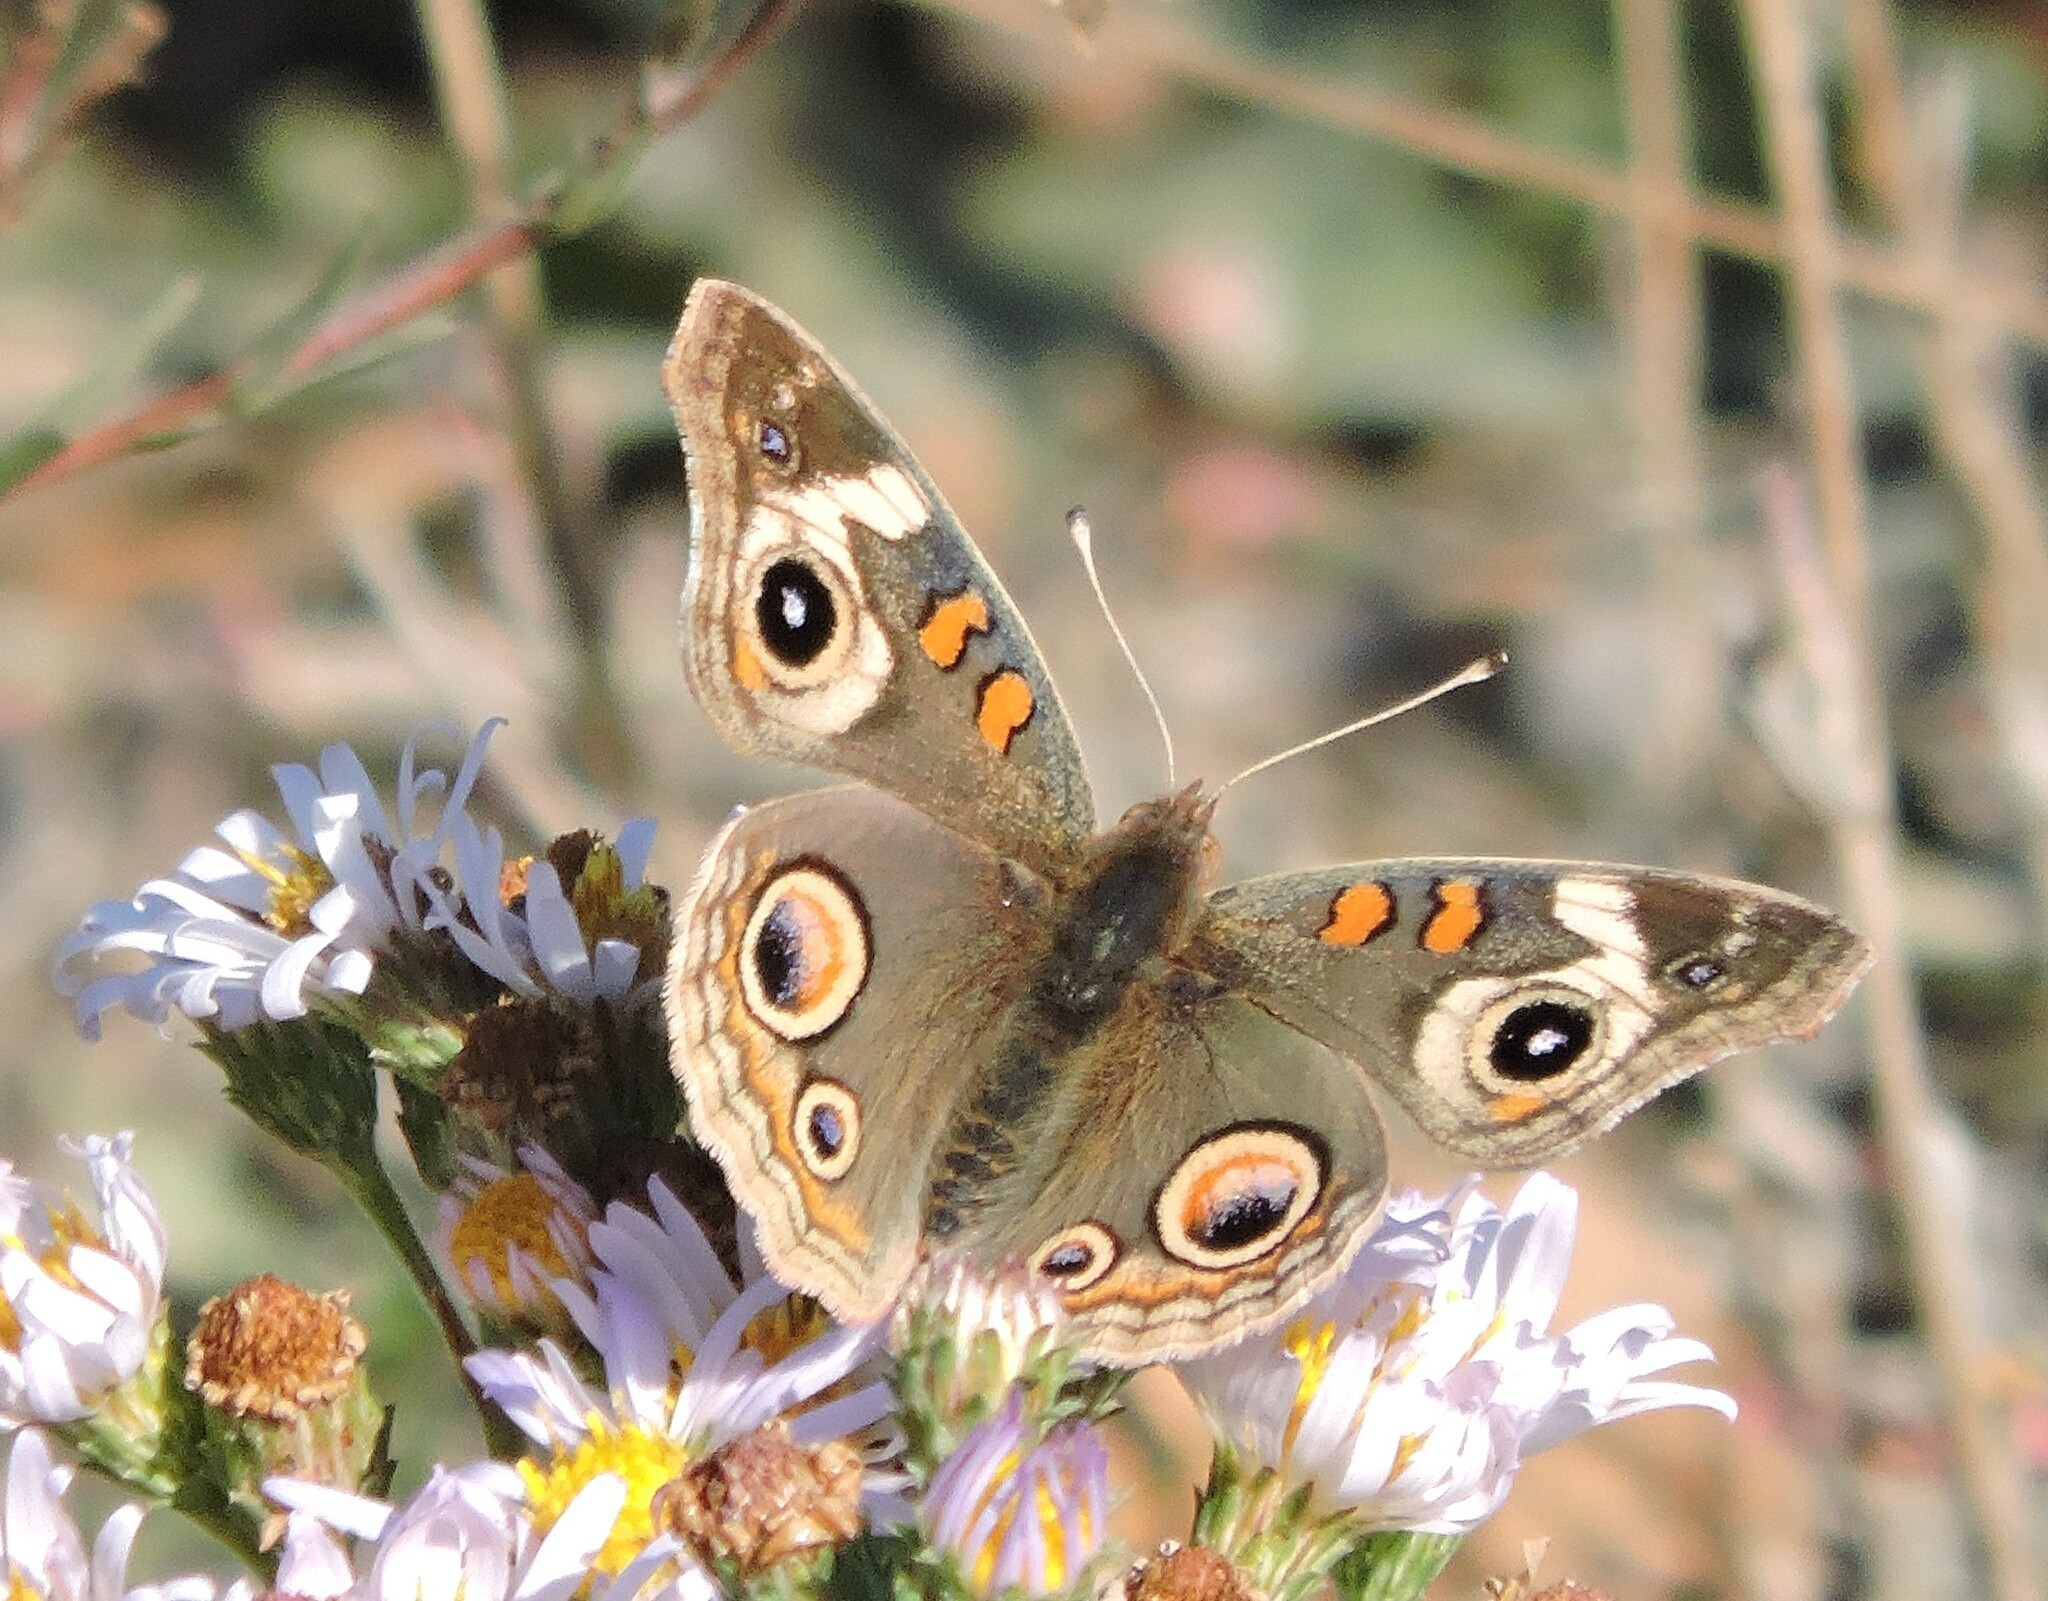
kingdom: Animalia
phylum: Arthropoda
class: Insecta
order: Lepidoptera
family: Nymphalidae
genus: Junonia
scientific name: Junonia grisea
